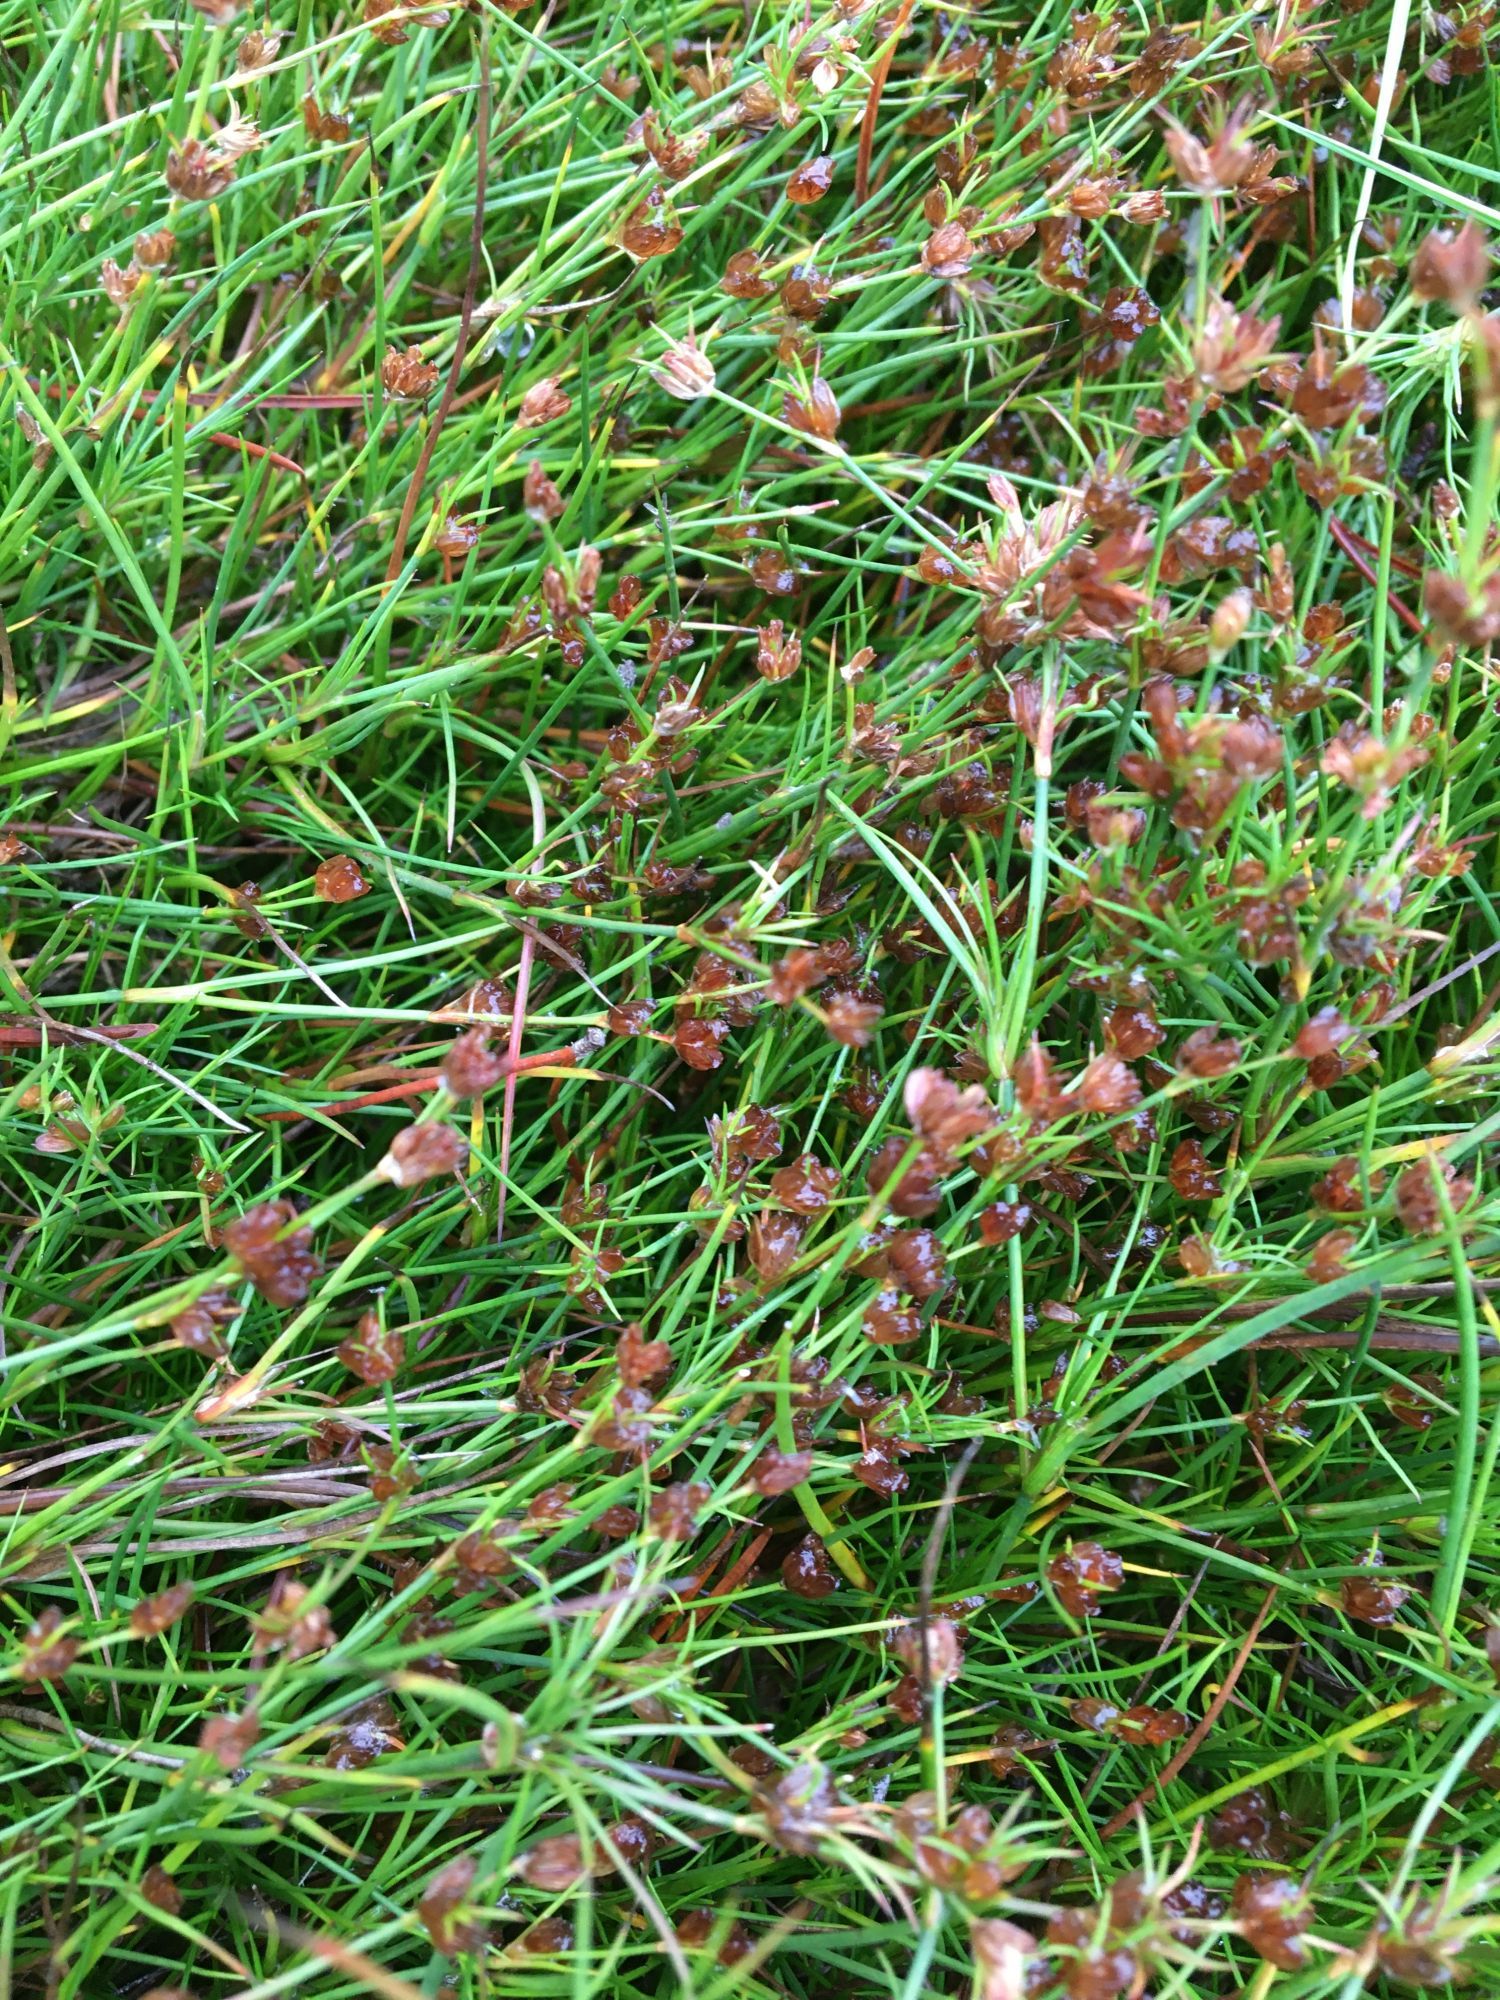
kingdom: Plantae
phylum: Tracheophyta
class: Liliopsida
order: Poales
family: Juncaceae
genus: Juncus
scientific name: Juncus bulbosus
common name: Bulbous rush
